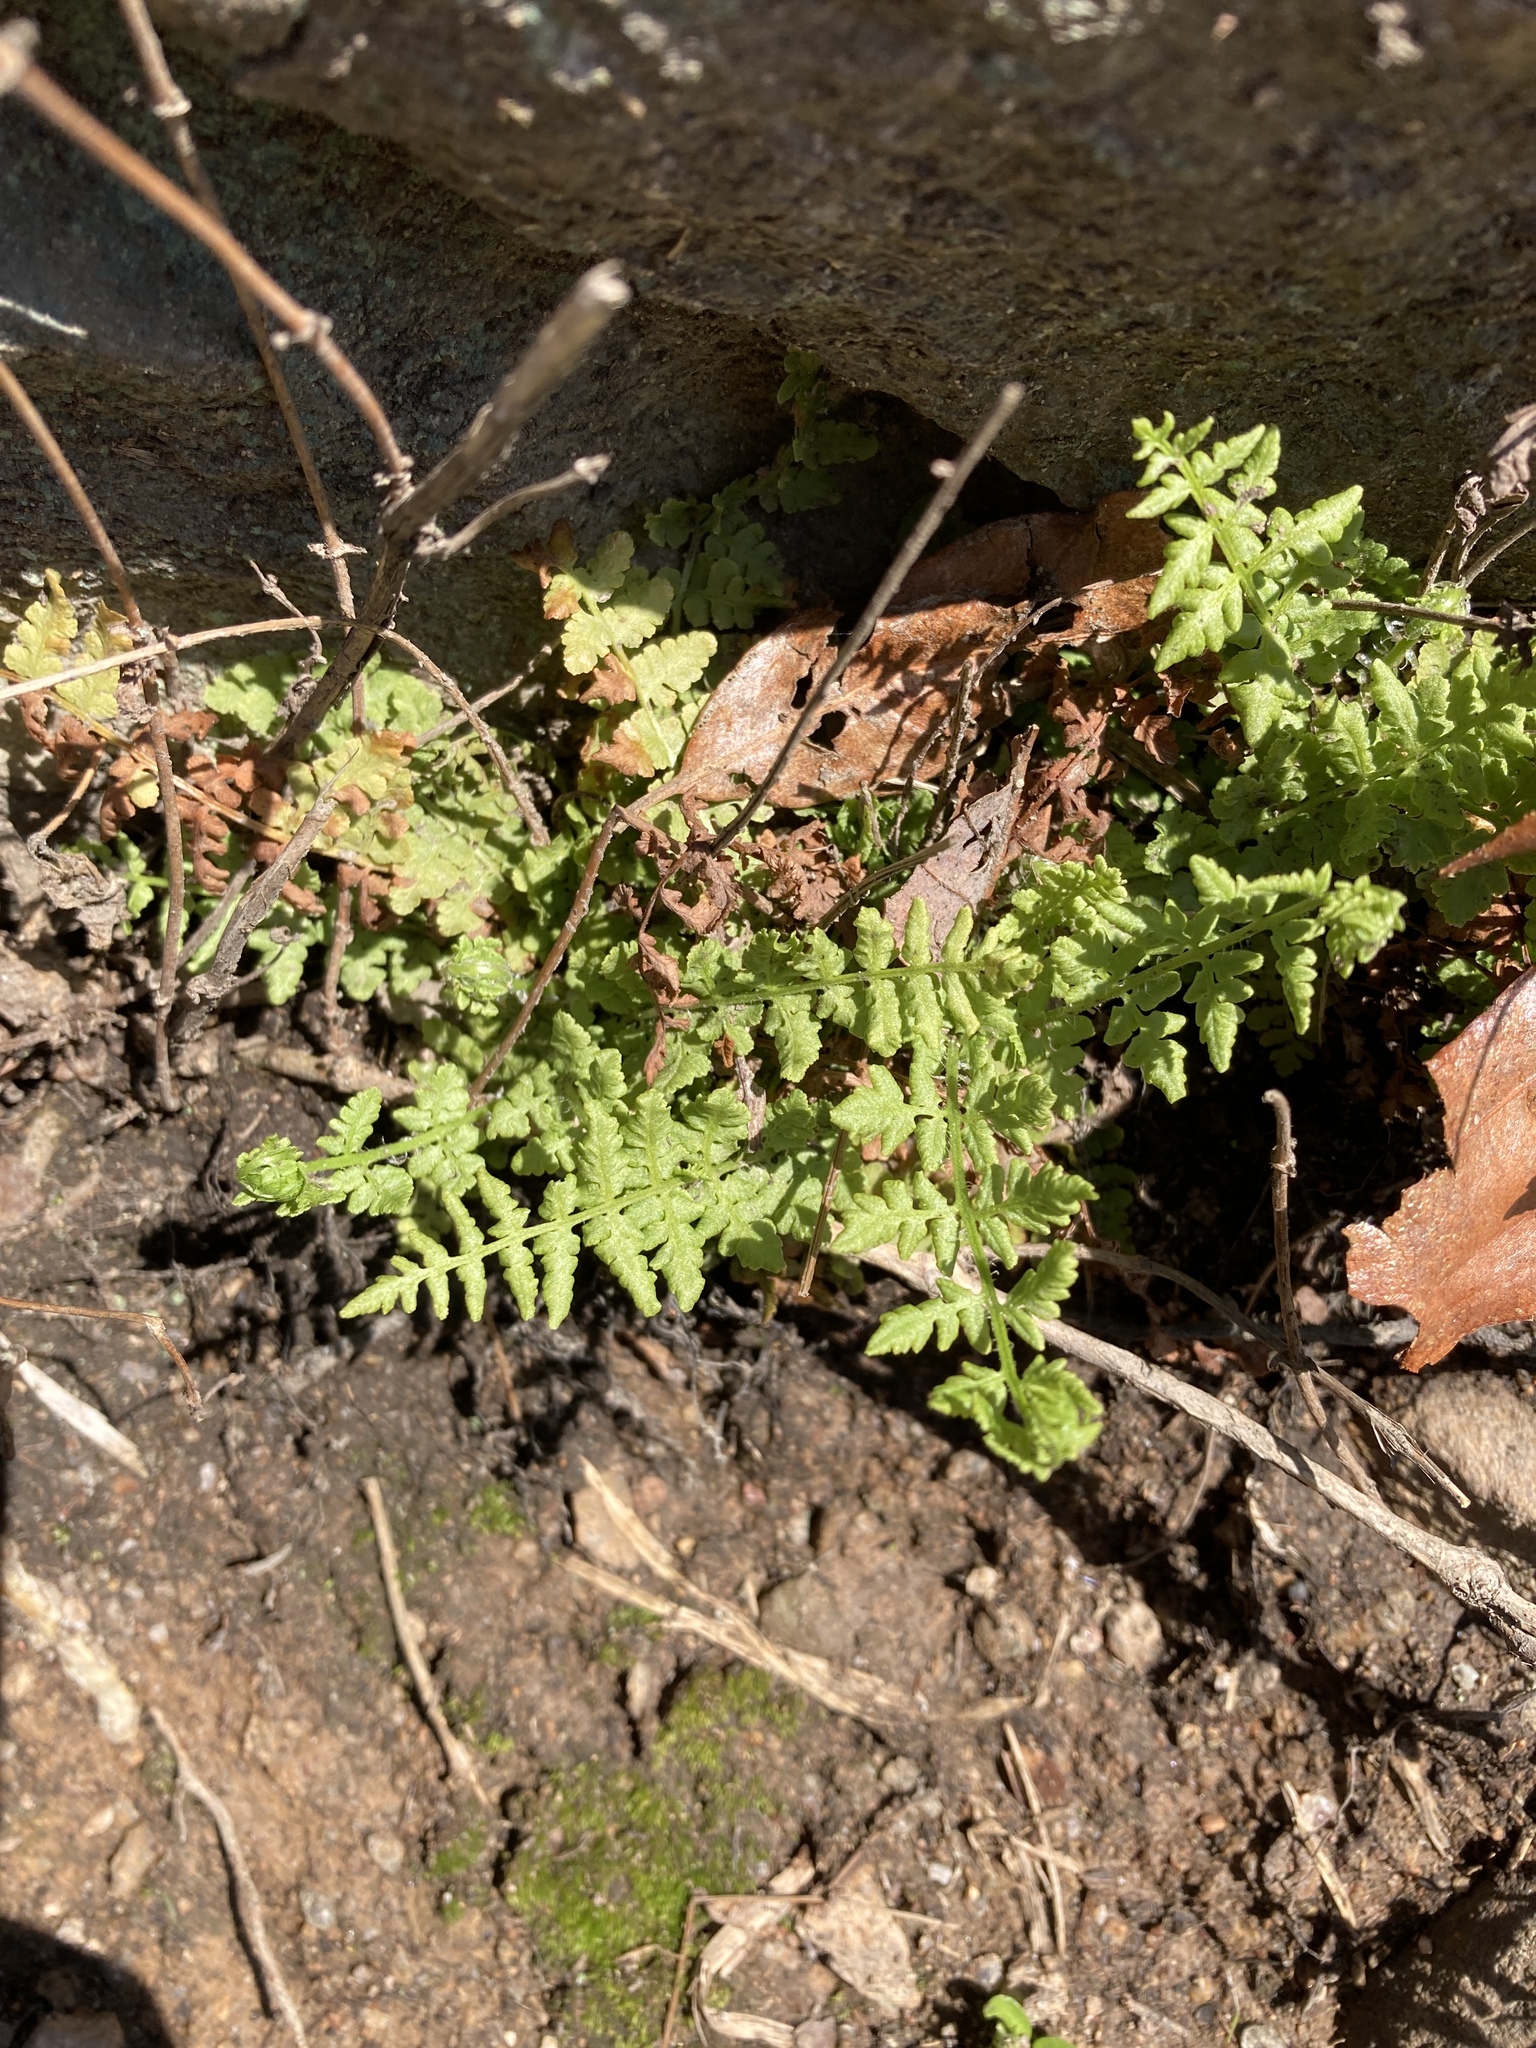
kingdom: Plantae
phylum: Tracheophyta
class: Polypodiopsida
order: Polypodiales
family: Woodsiaceae
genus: Physematium
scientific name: Physematium obtusum
